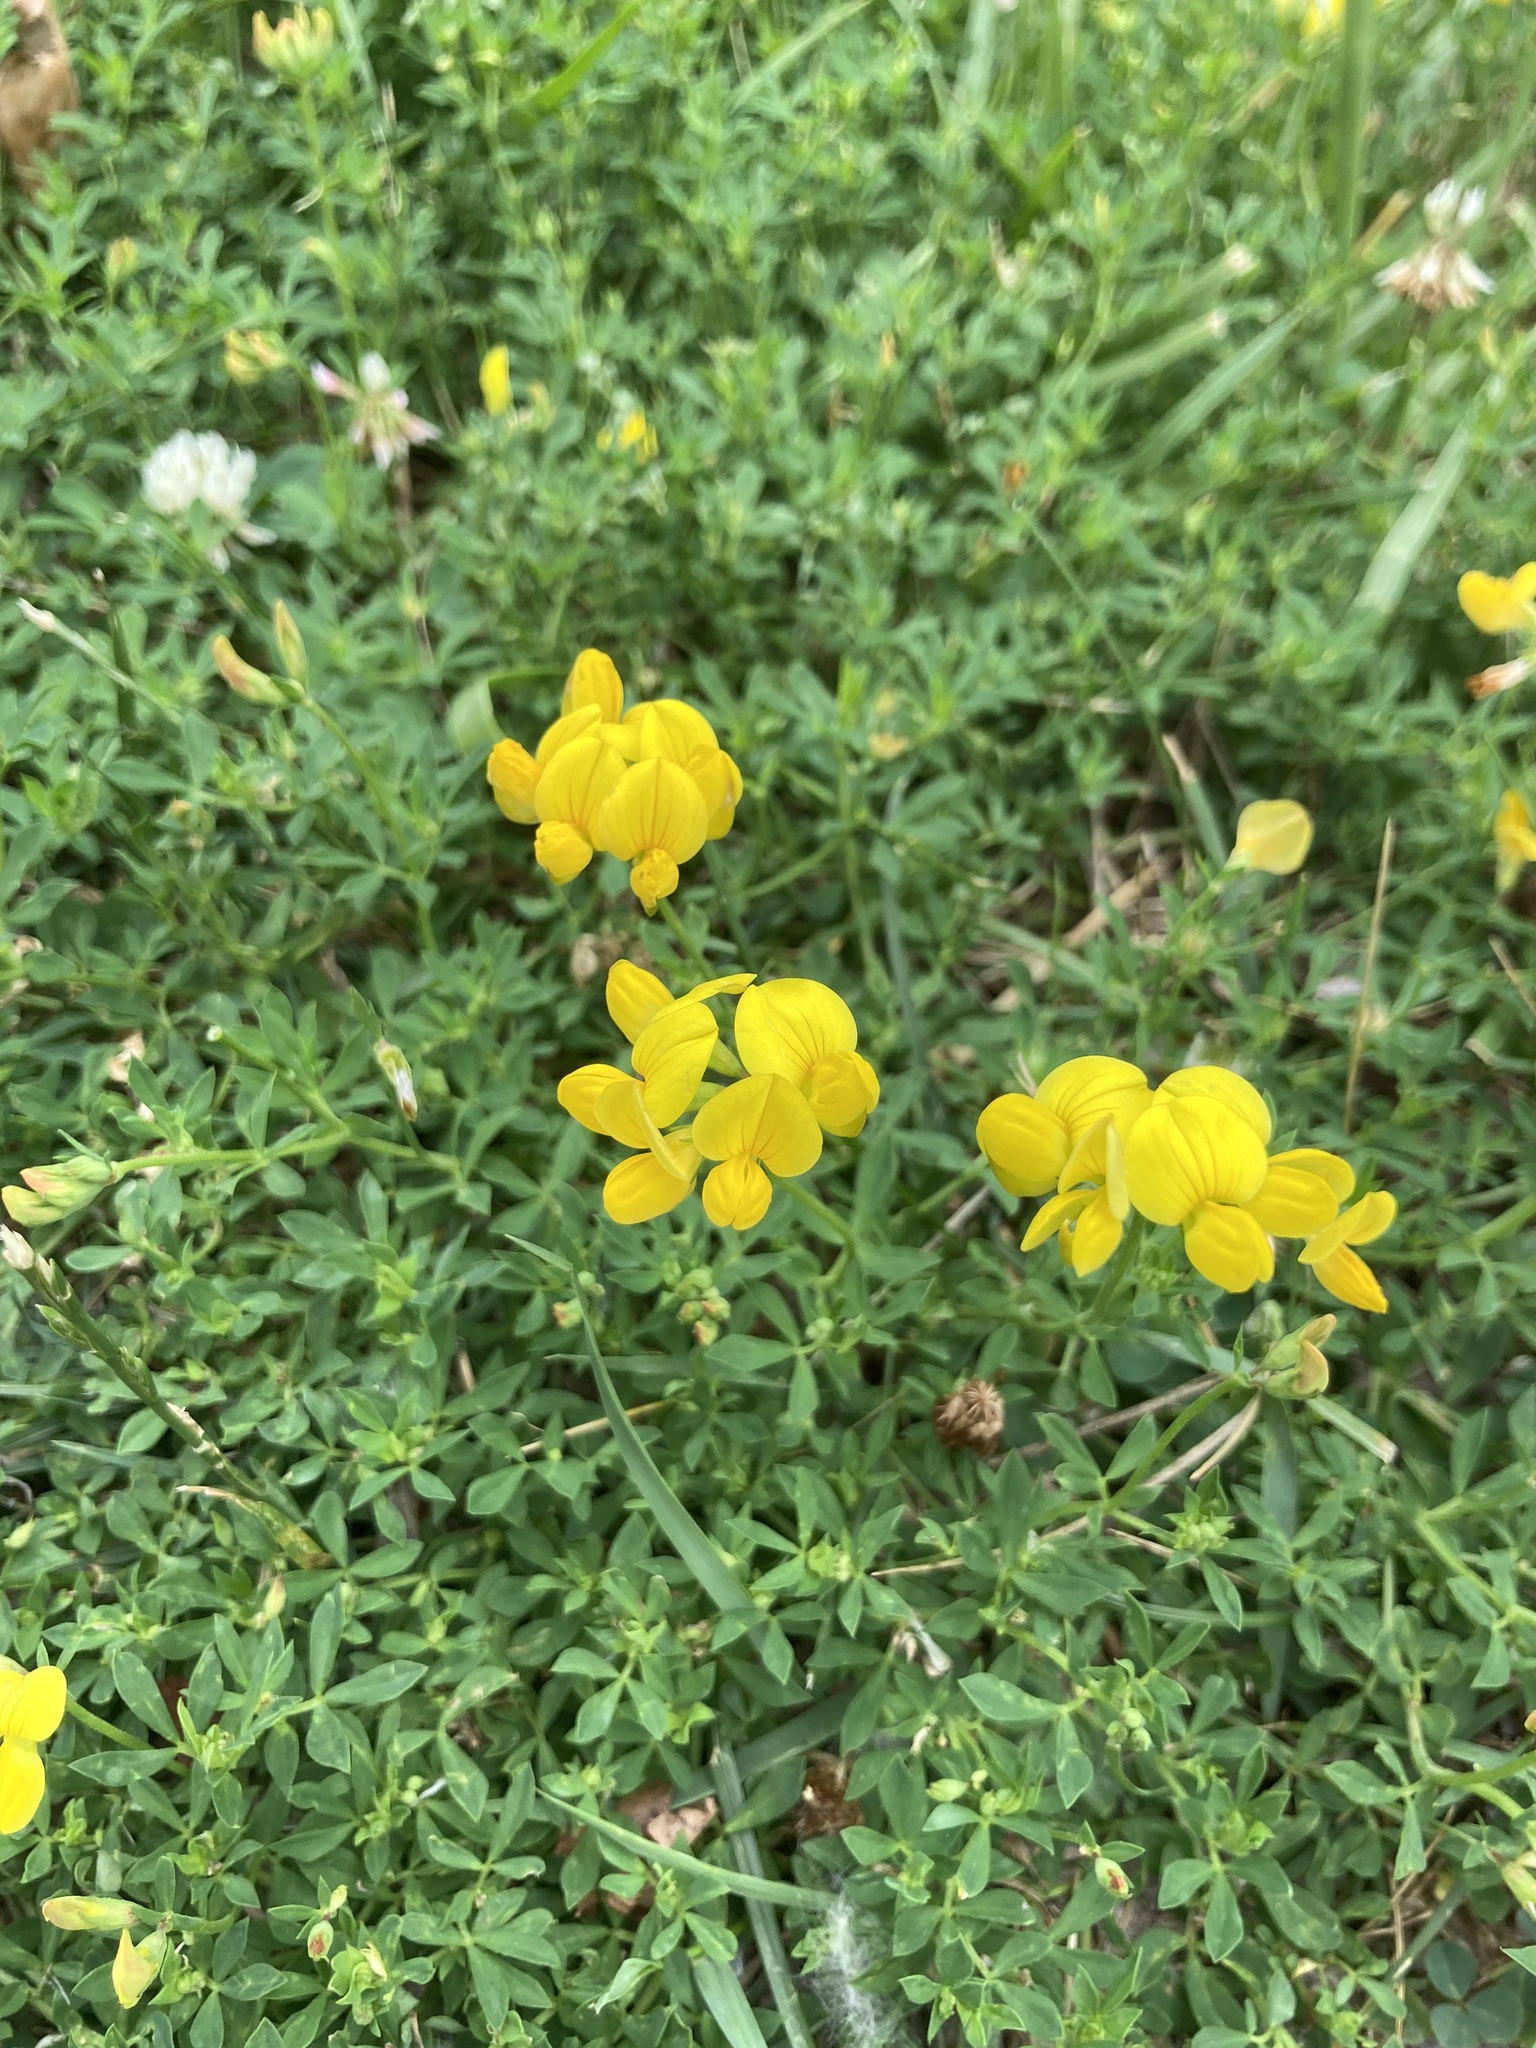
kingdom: Plantae
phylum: Tracheophyta
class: Magnoliopsida
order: Fabales
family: Fabaceae
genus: Lotus
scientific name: Lotus corniculatus
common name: Common bird's-foot-trefoil
